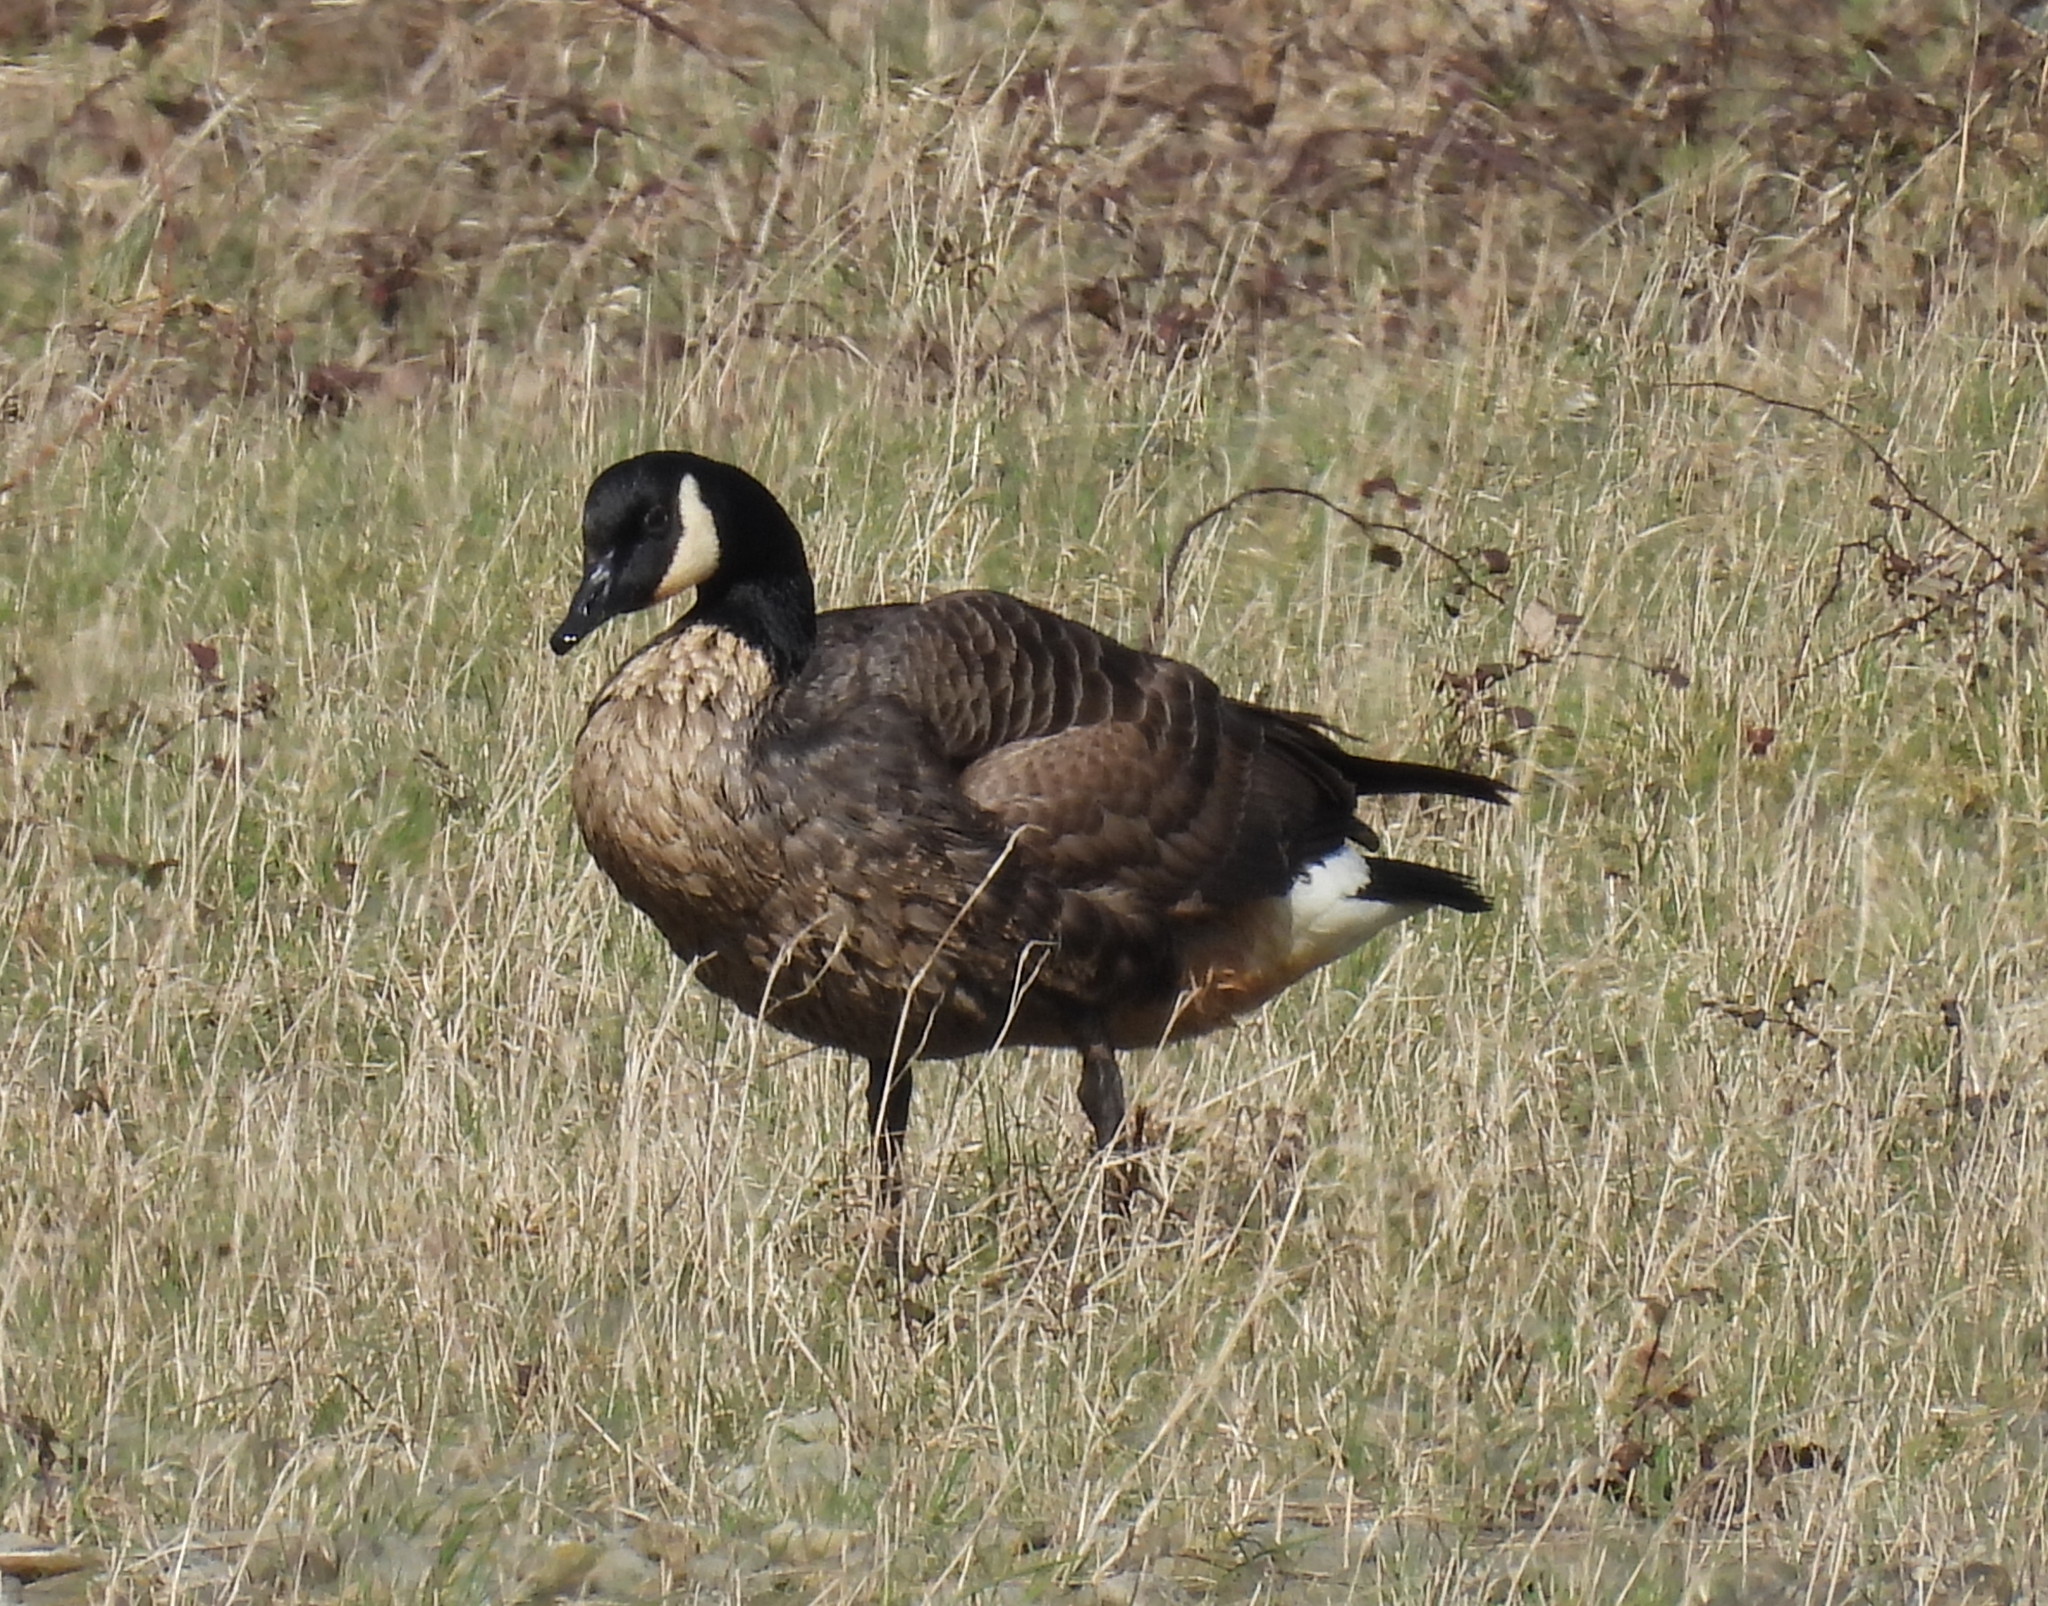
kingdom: Animalia
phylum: Chordata
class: Aves
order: Anseriformes
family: Anatidae
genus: Branta
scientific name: Branta canadensis
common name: Canada goose
